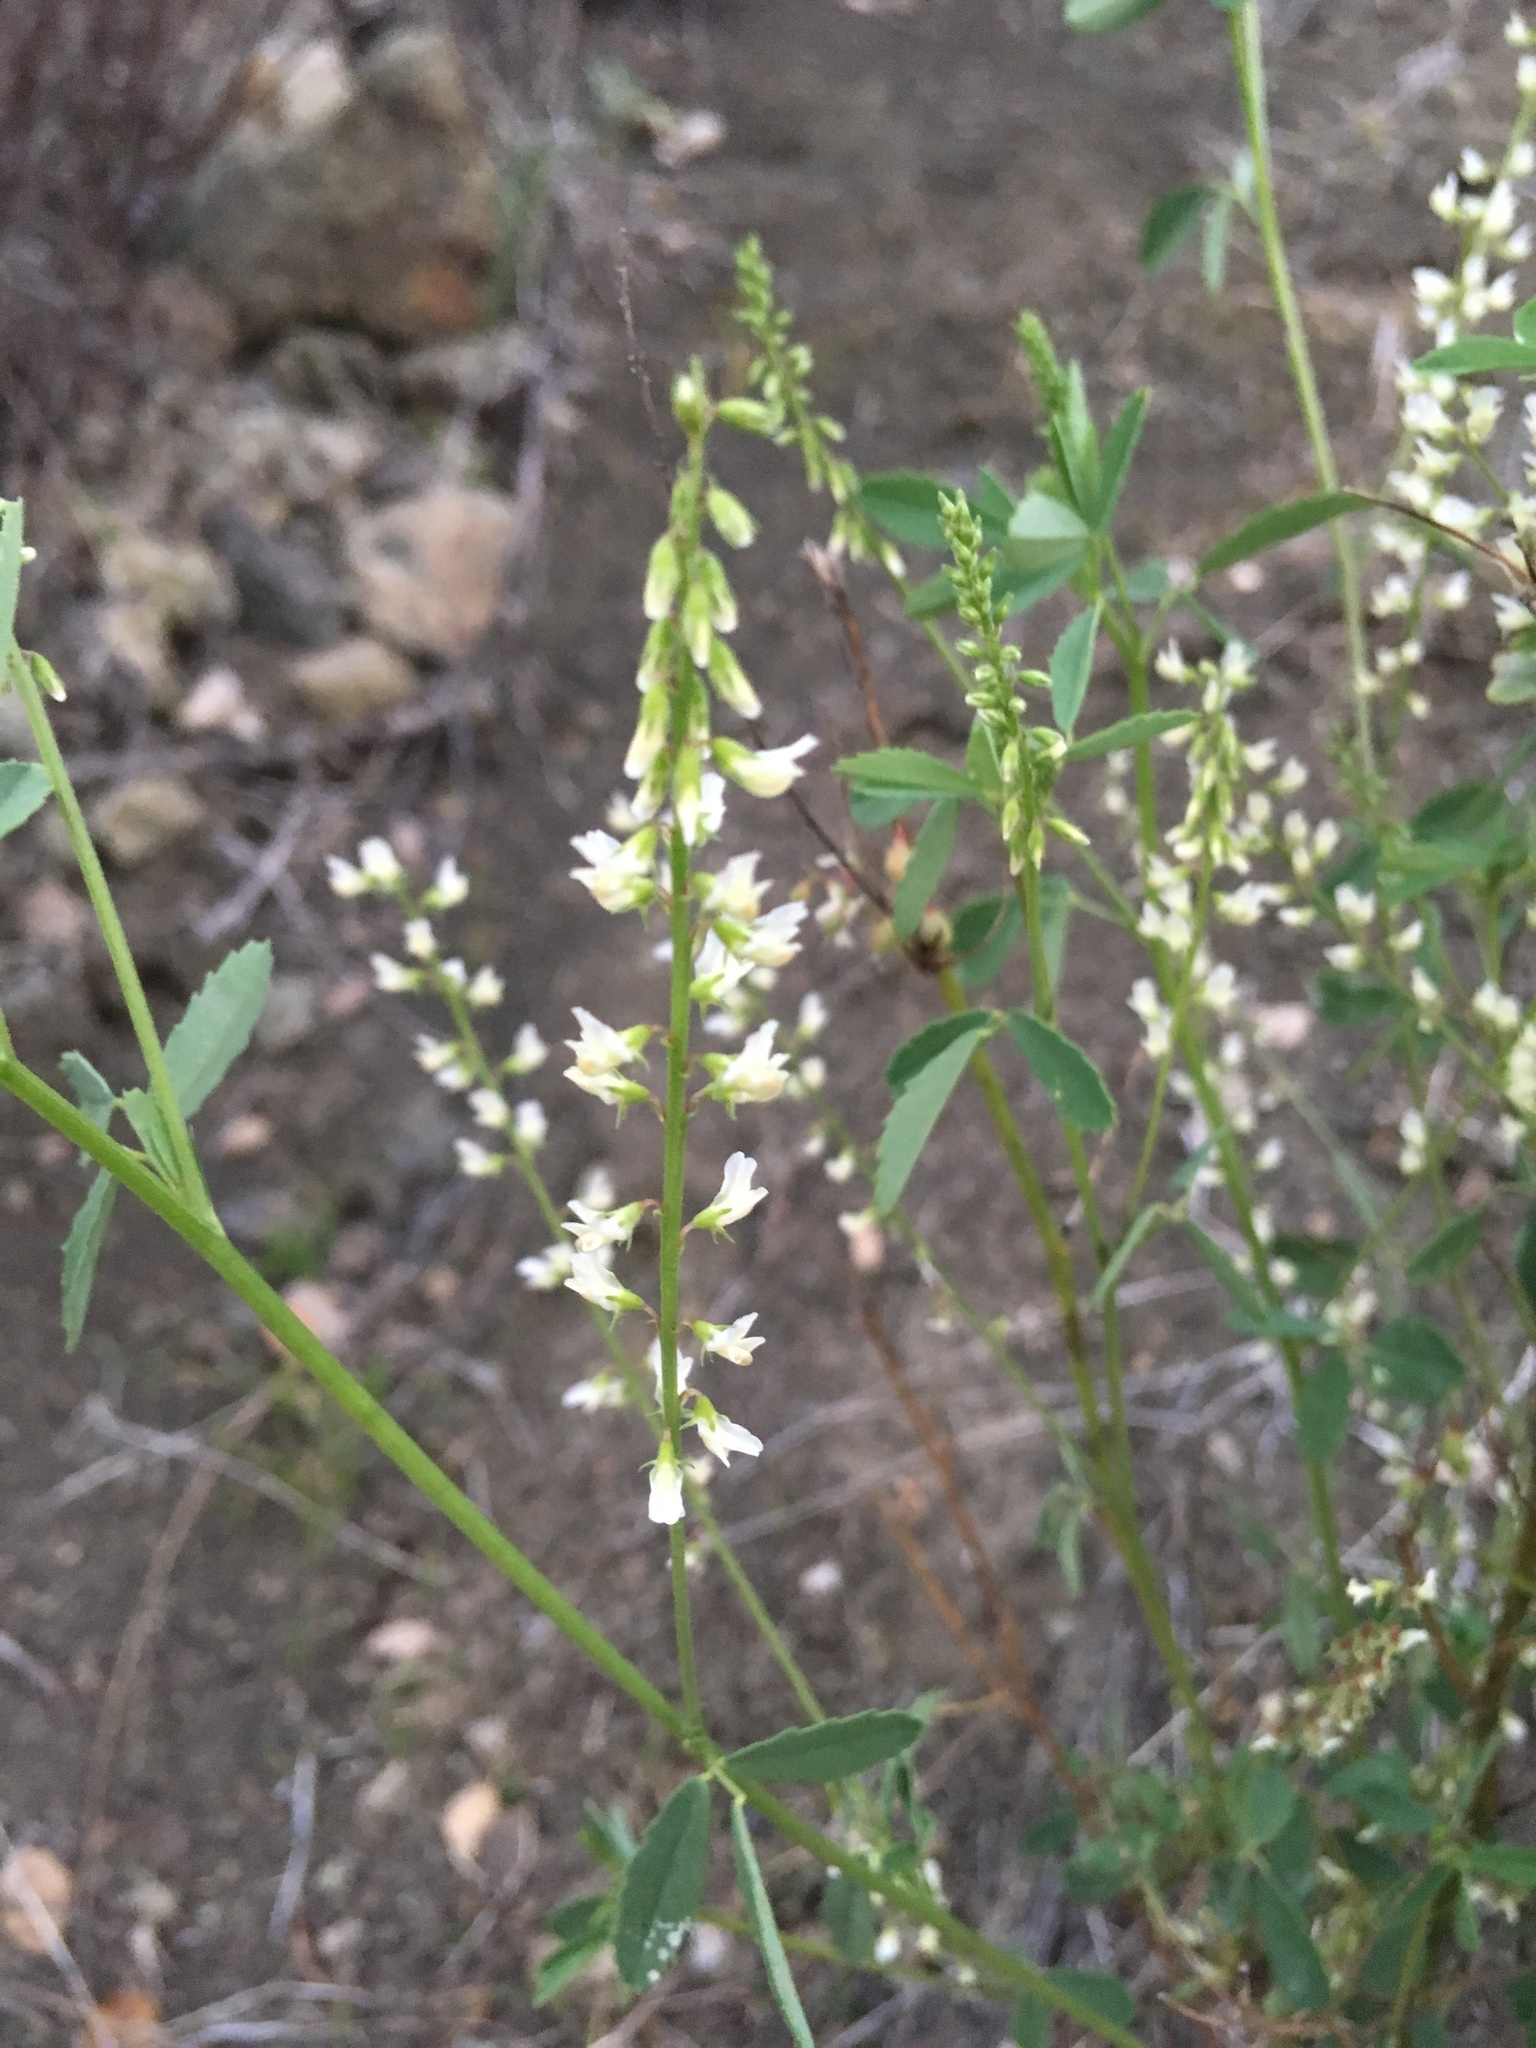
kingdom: Plantae
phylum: Tracheophyta
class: Magnoliopsida
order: Fabales
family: Fabaceae
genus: Melilotus
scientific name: Melilotus albus
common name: White melilot
